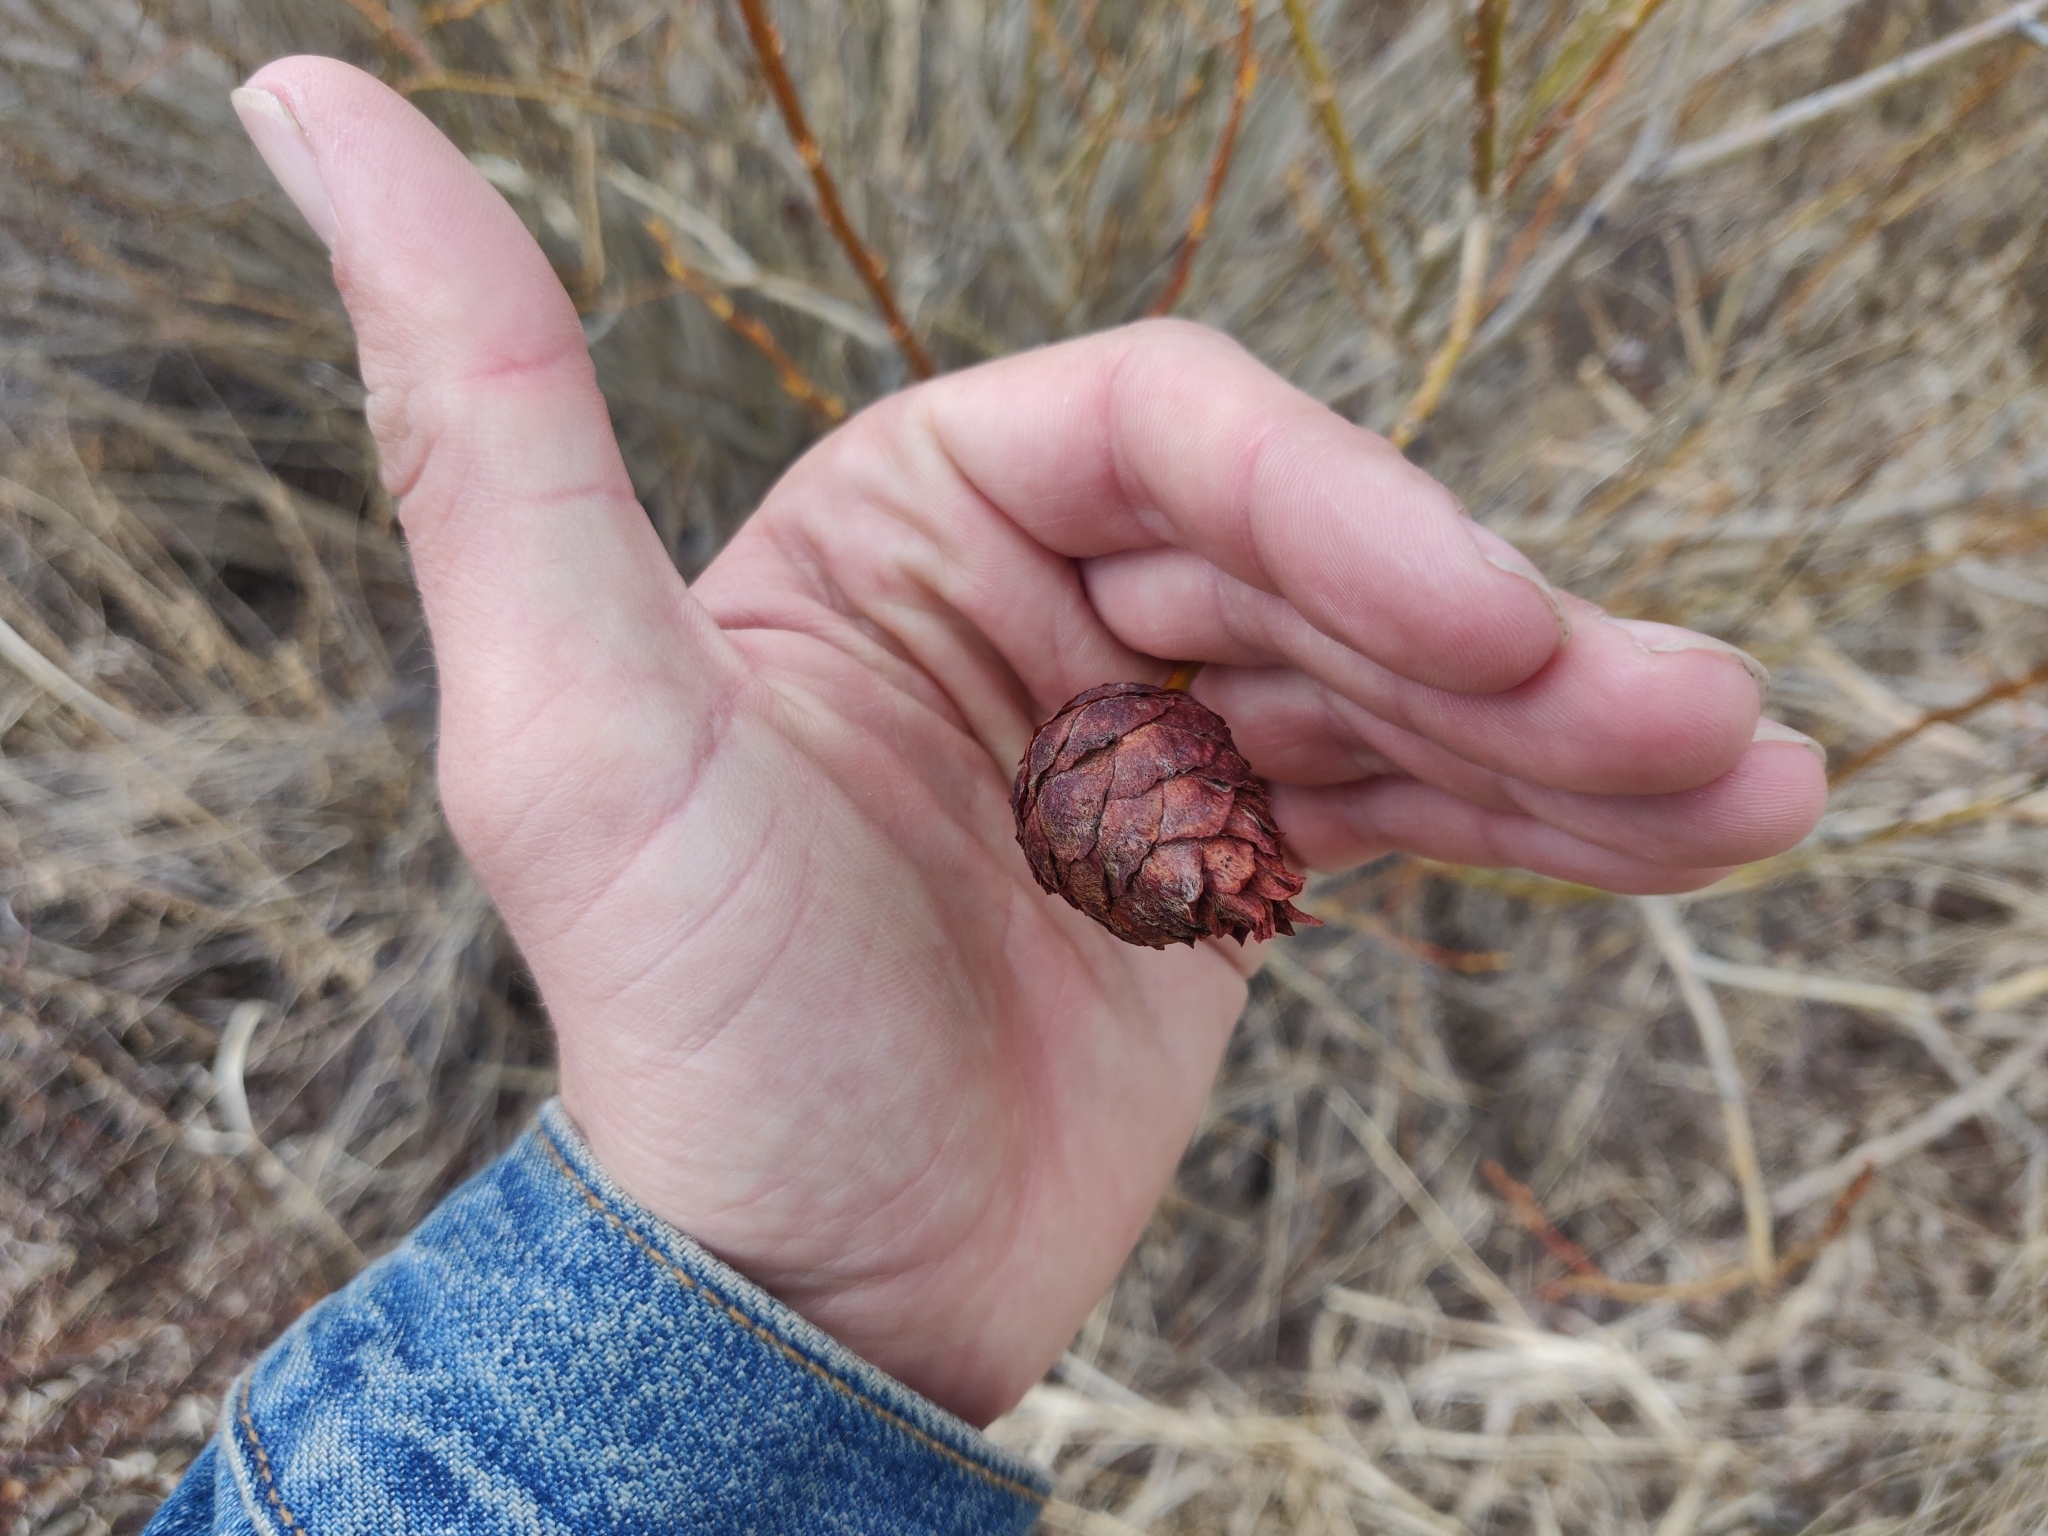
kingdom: Animalia
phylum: Arthropoda
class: Insecta
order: Diptera
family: Cecidomyiidae
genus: Rabdophaga
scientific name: Rabdophaga strobiloides
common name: Willow pinecone gall midge
